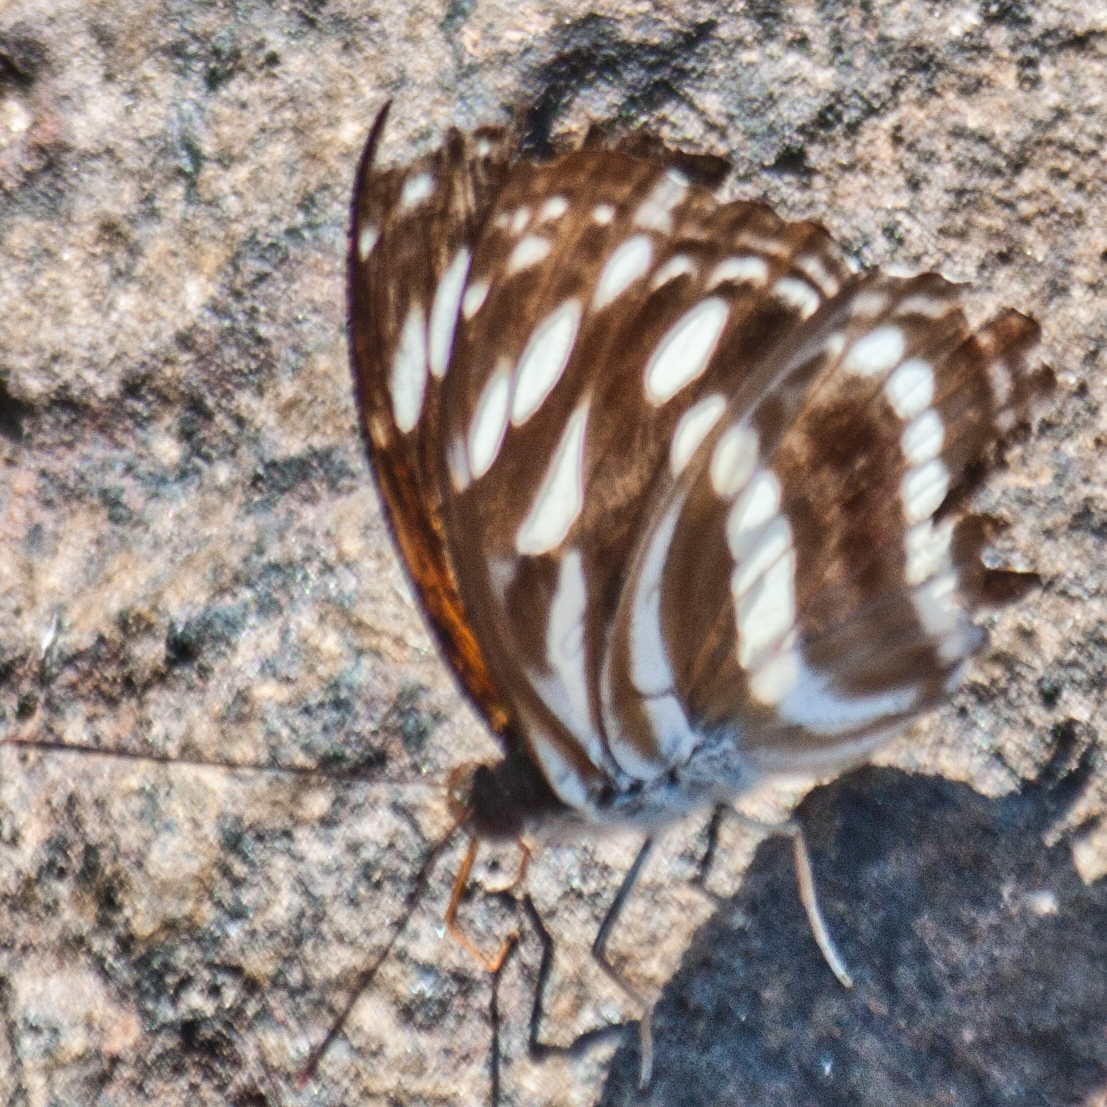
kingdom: Animalia
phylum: Arthropoda
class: Insecta
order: Lepidoptera
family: Nymphalidae
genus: Pantoporia
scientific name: Pantoporia larymna
